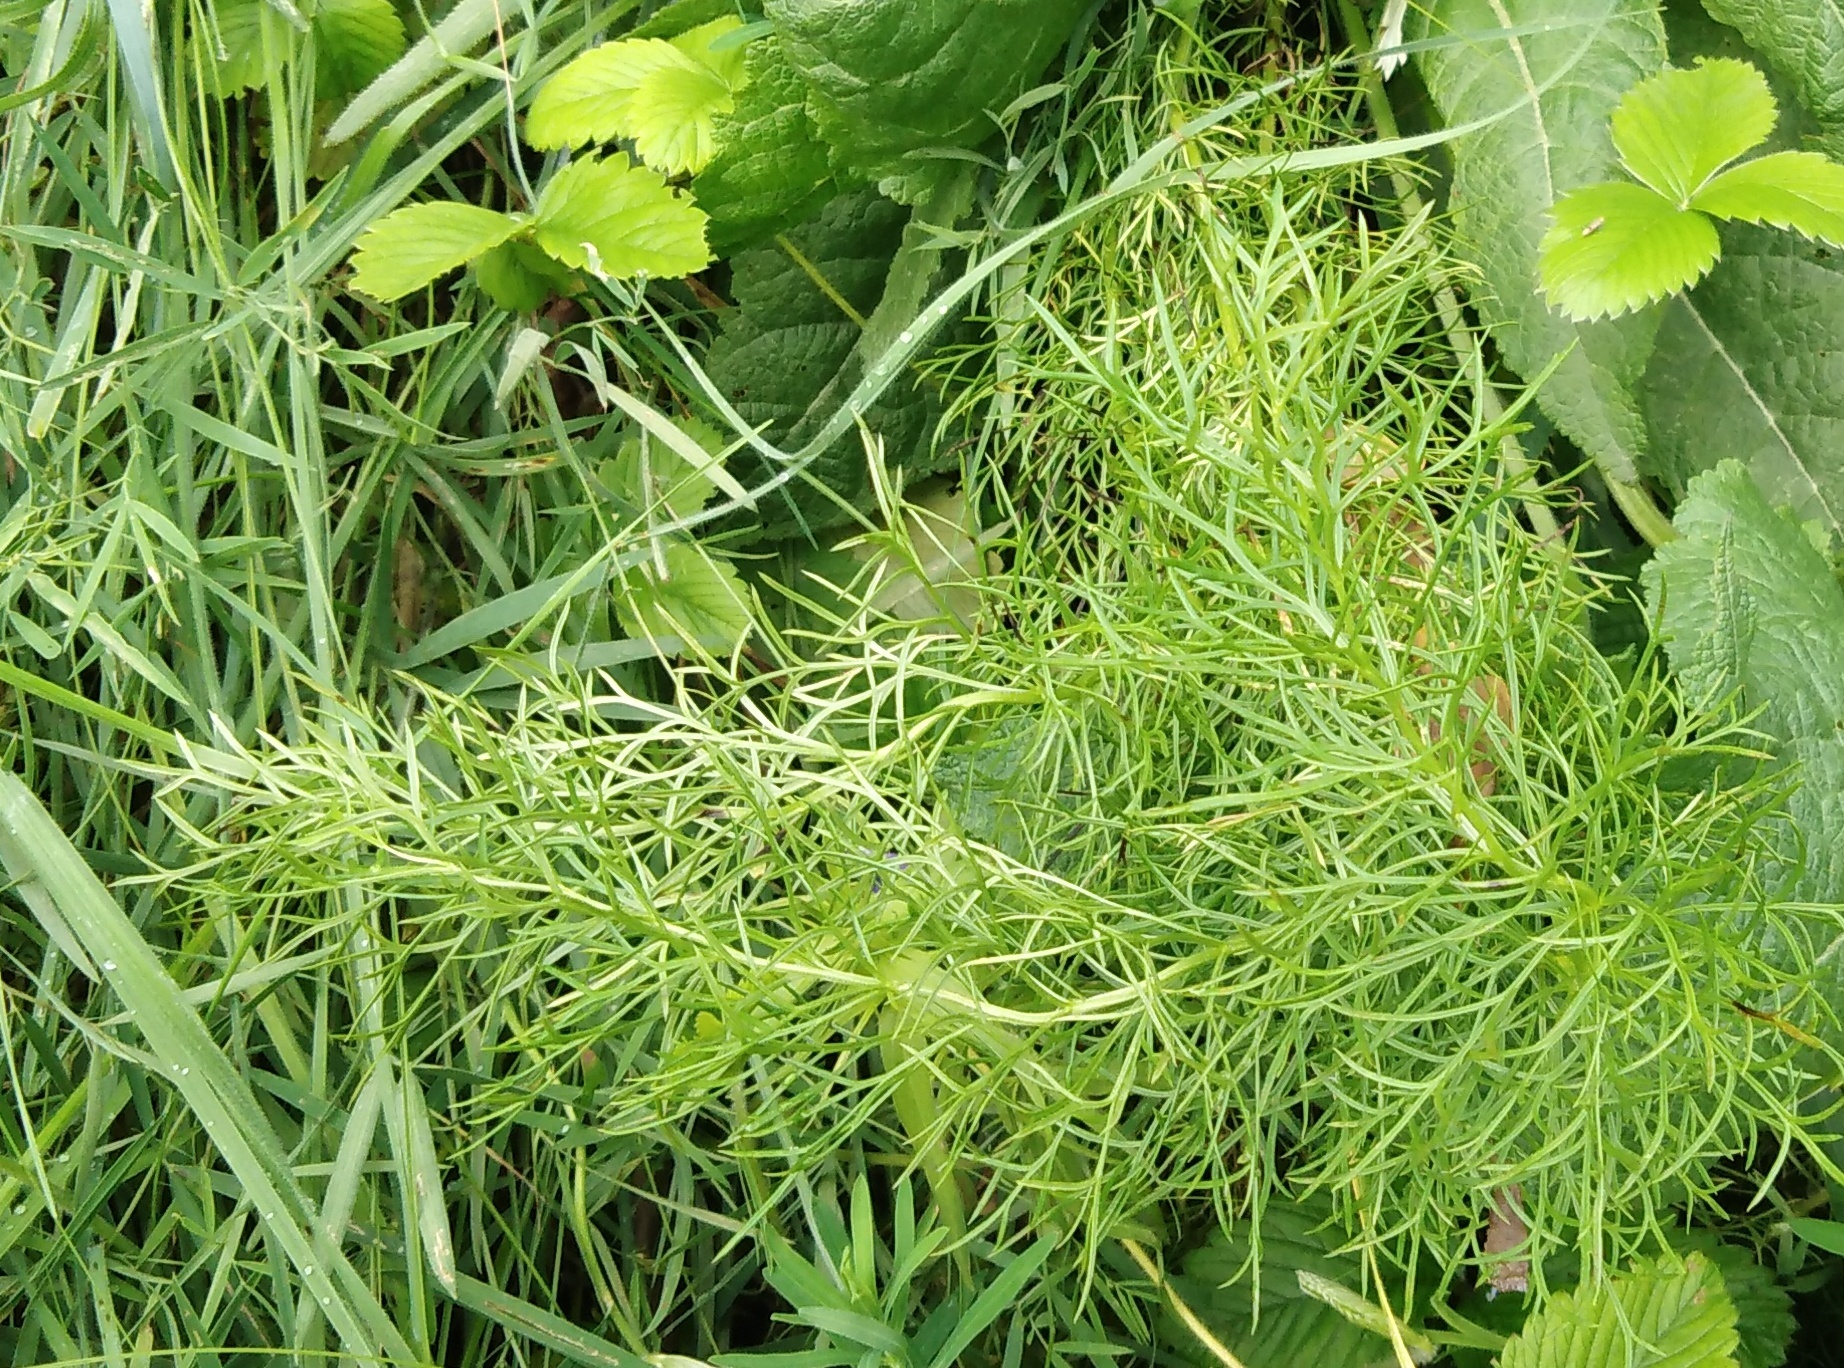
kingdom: Plantae
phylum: Tracheophyta
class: Magnoliopsida
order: Ranunculales
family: Ranunculaceae
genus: Adonis
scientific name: Adonis vernalis
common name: Yellow pheasants-eye
